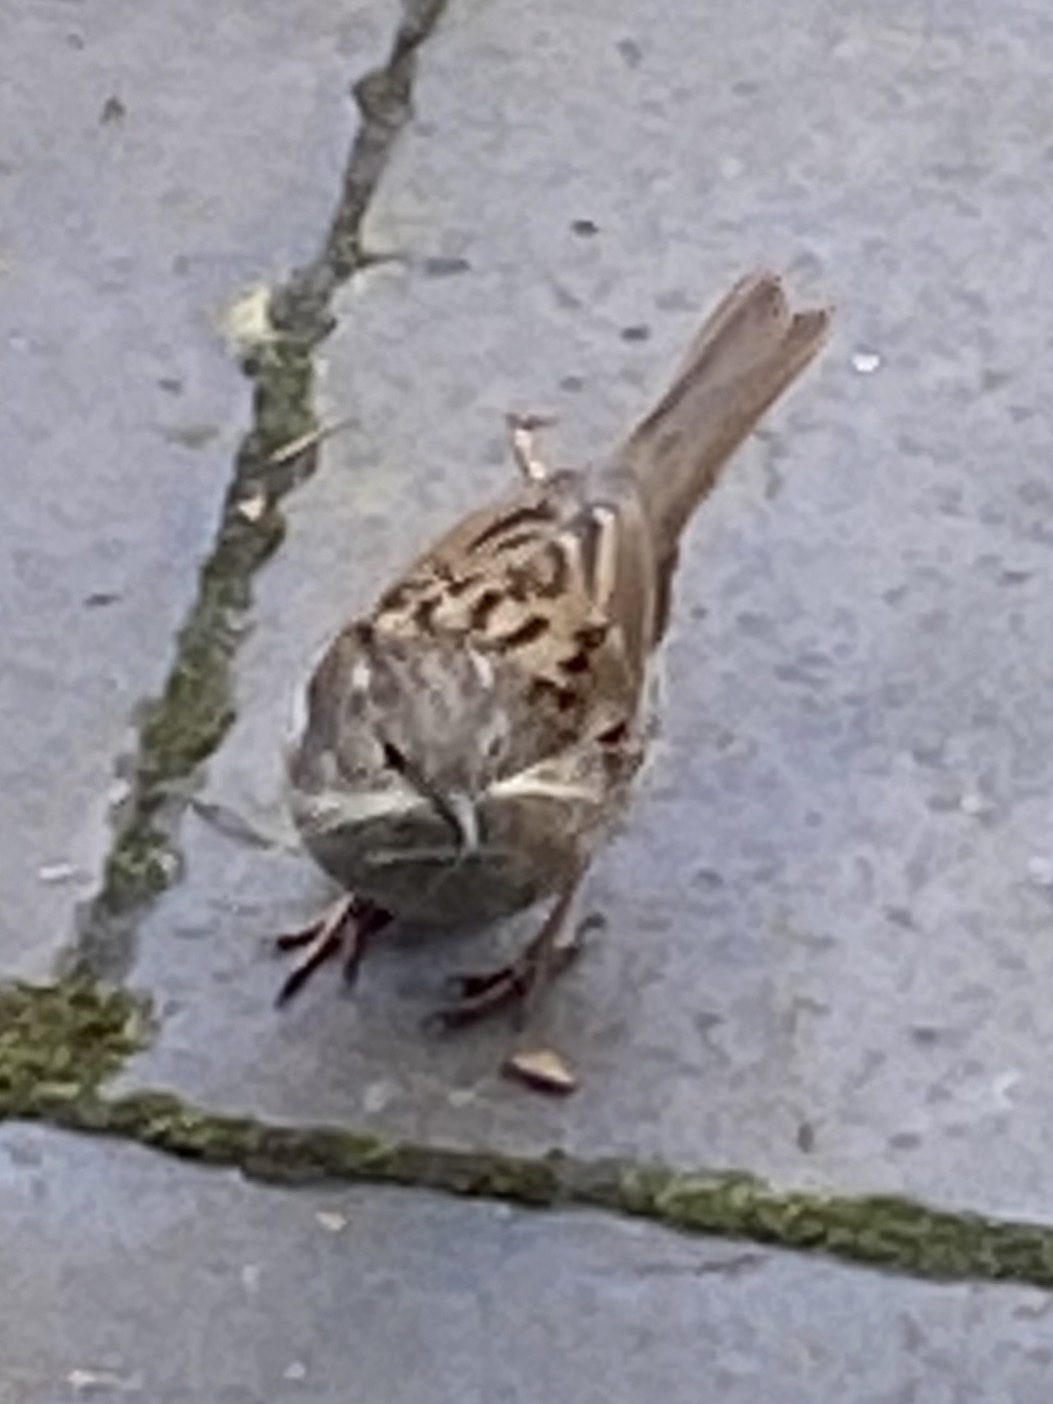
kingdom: Animalia
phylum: Chordata
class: Aves
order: Passeriformes
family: Prunellidae
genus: Prunella
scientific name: Prunella modularis
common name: Dunnock
